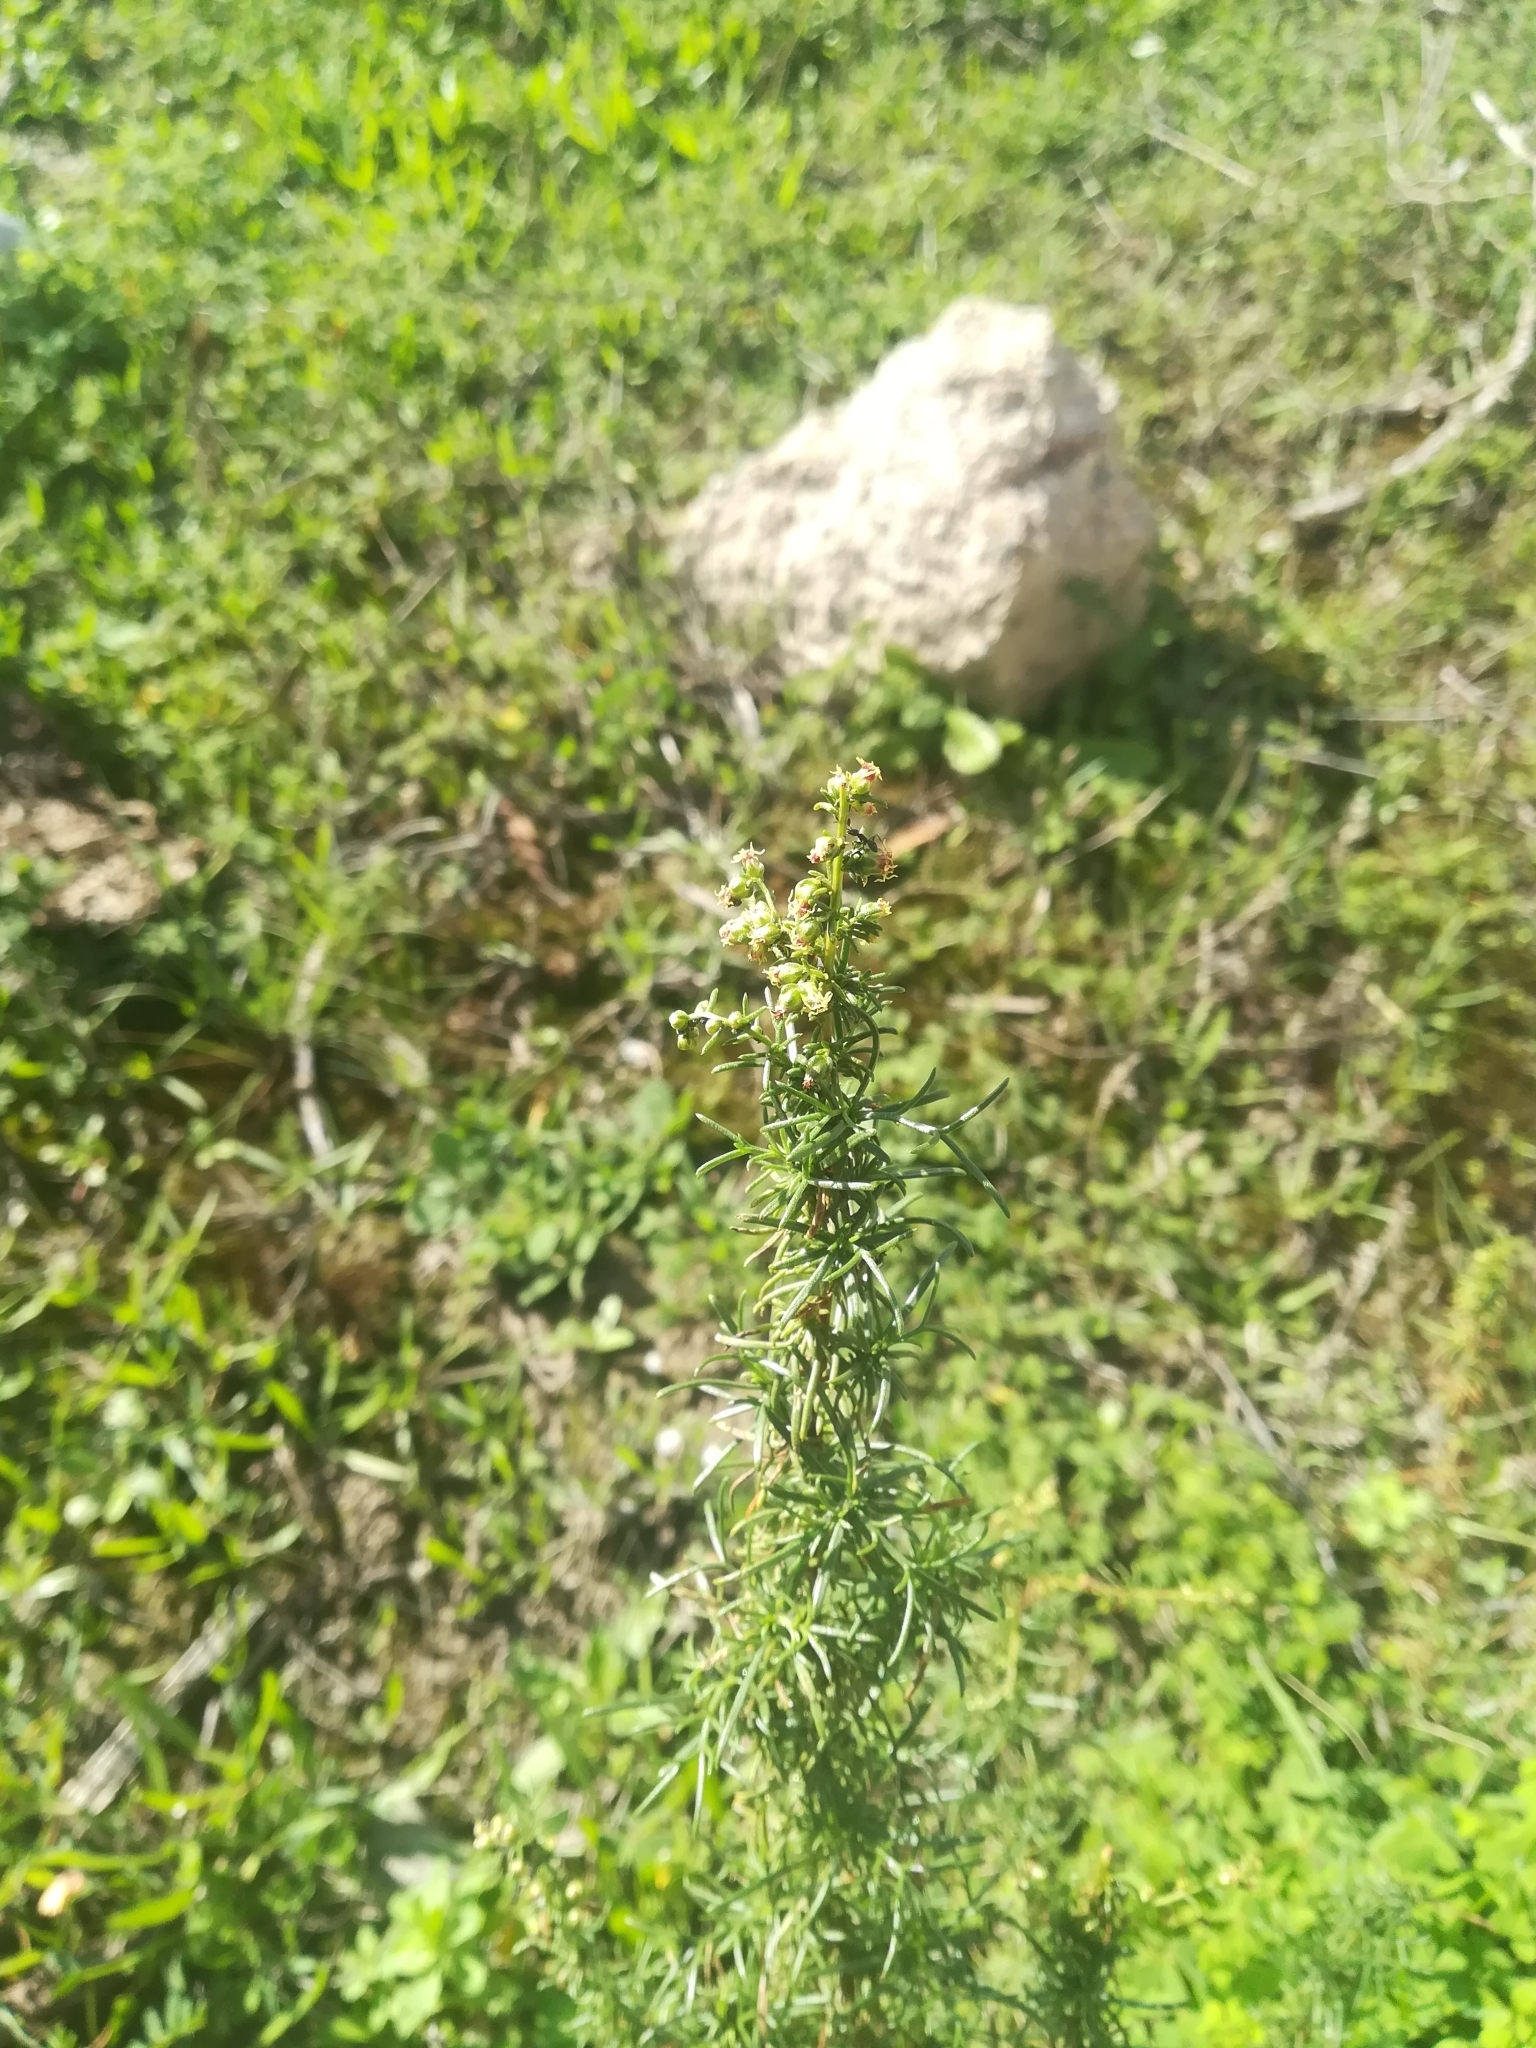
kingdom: Plantae
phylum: Tracheophyta
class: Magnoliopsida
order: Asterales
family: Asteraceae
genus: Artemisia
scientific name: Artemisia campestris
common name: Field wormwood
